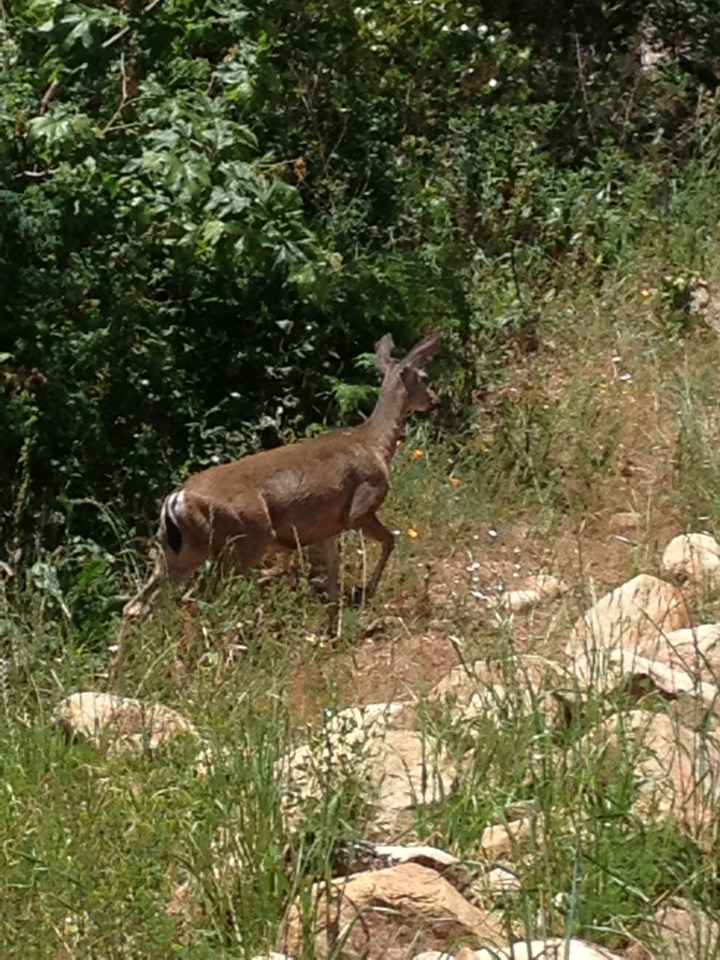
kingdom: Animalia
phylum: Chordata
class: Mammalia
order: Artiodactyla
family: Cervidae
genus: Odocoileus
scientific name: Odocoileus hemionus
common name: Mule deer
